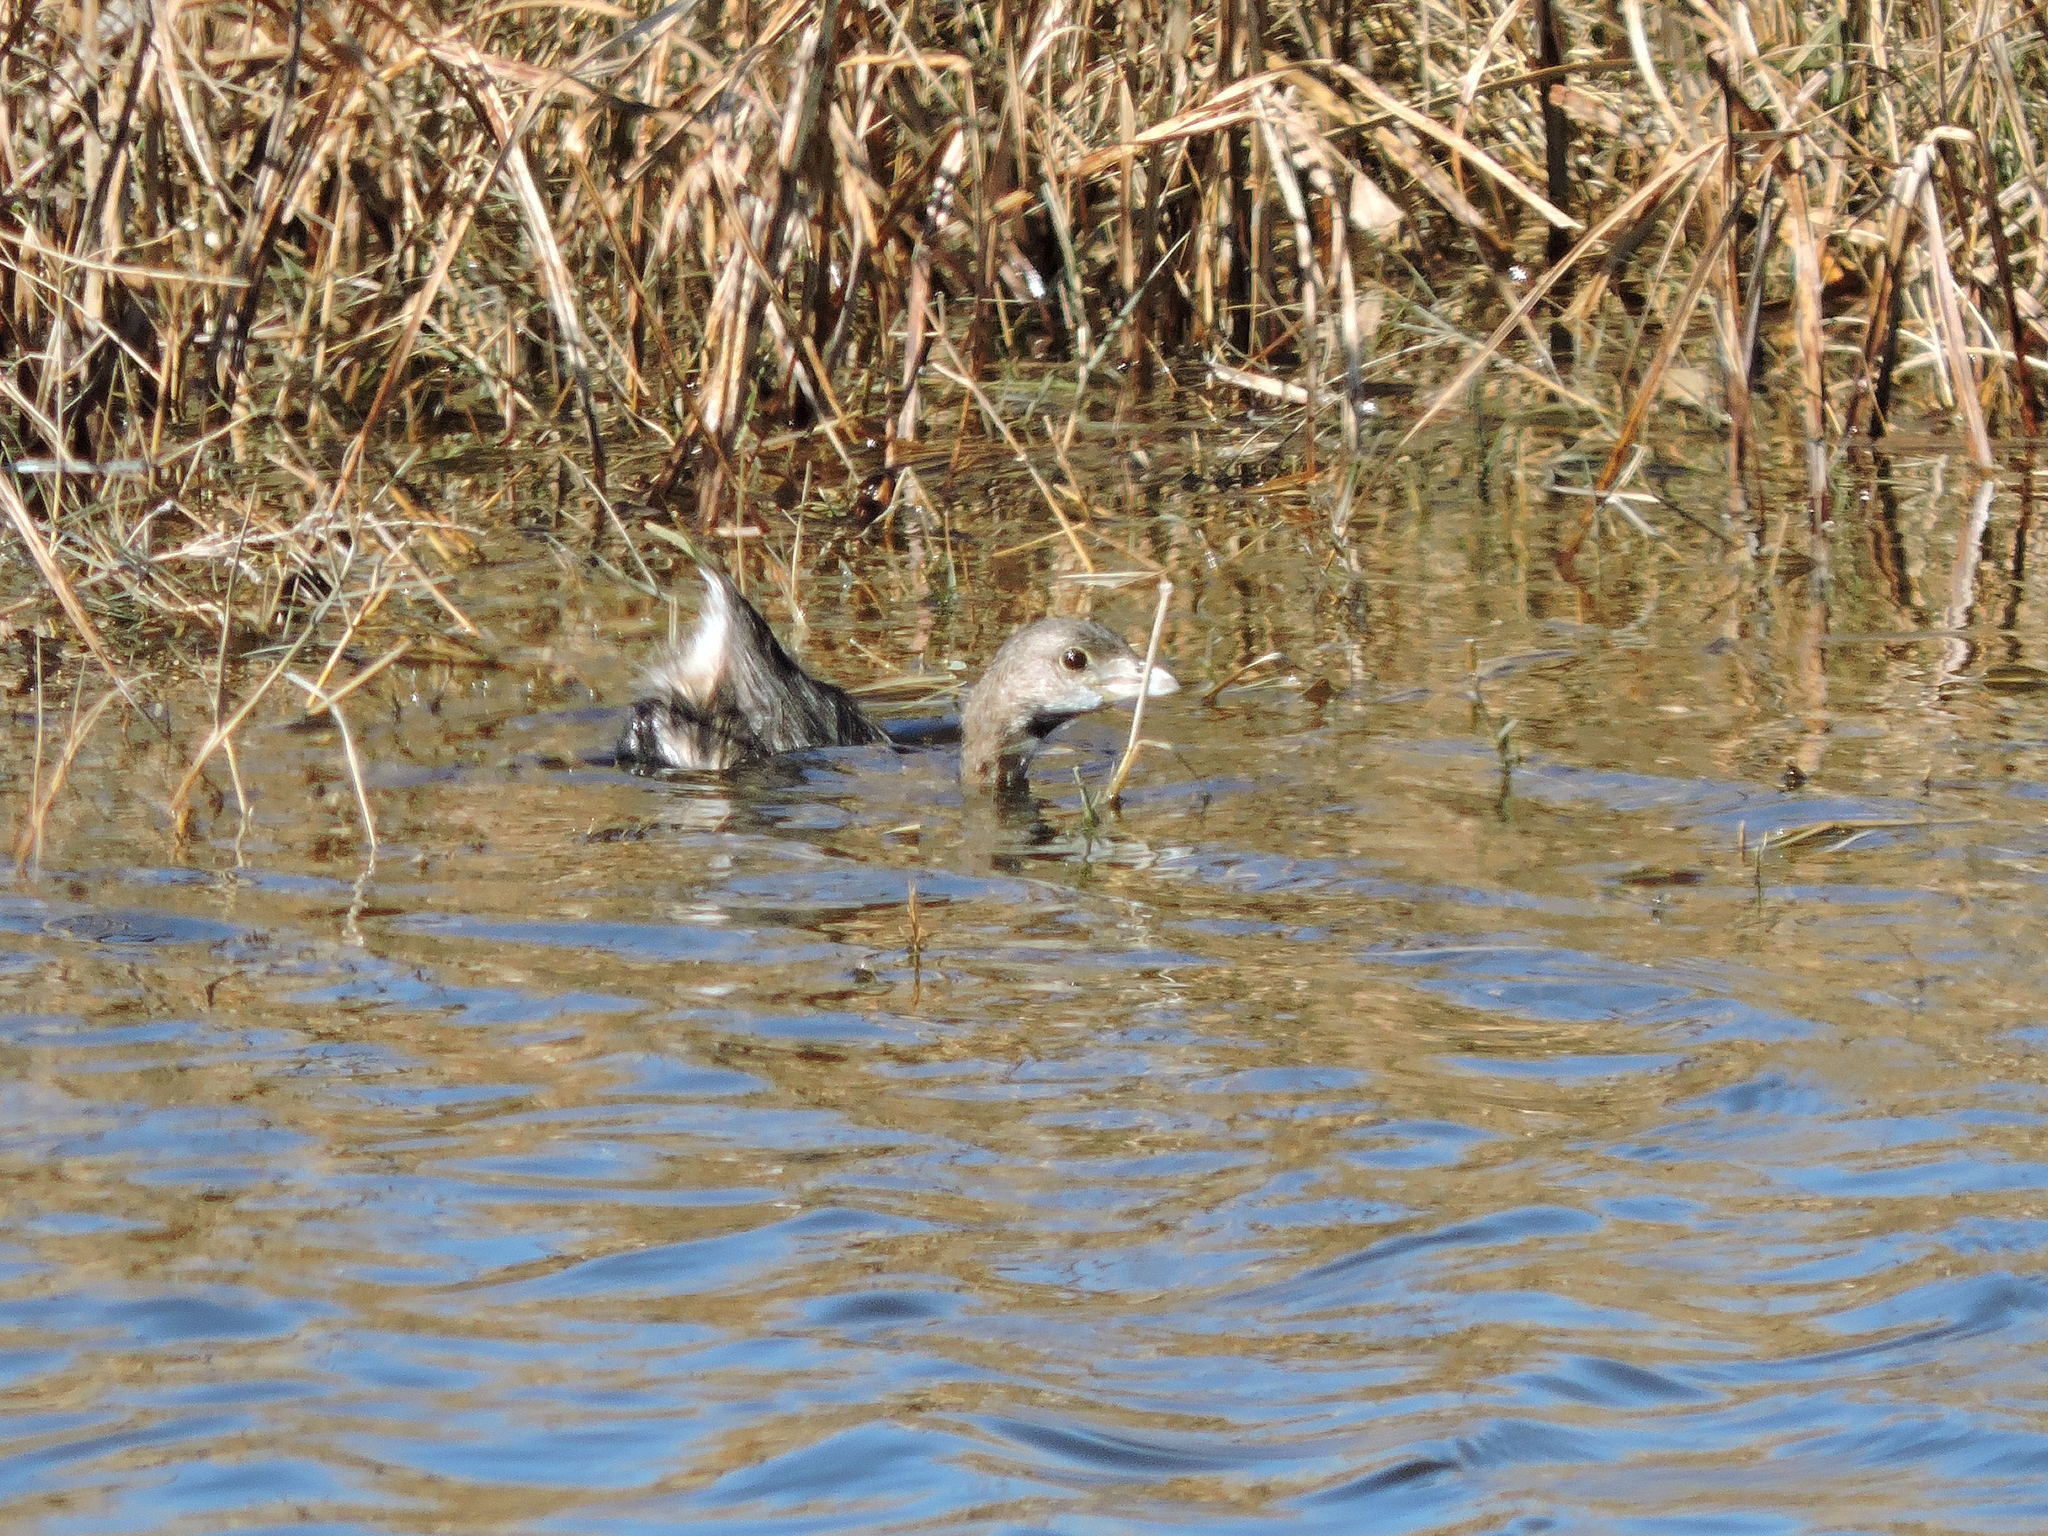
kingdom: Animalia
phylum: Chordata
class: Aves
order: Podicipediformes
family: Podicipedidae
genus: Podilymbus
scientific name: Podilymbus podiceps
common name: Pied-billed grebe
